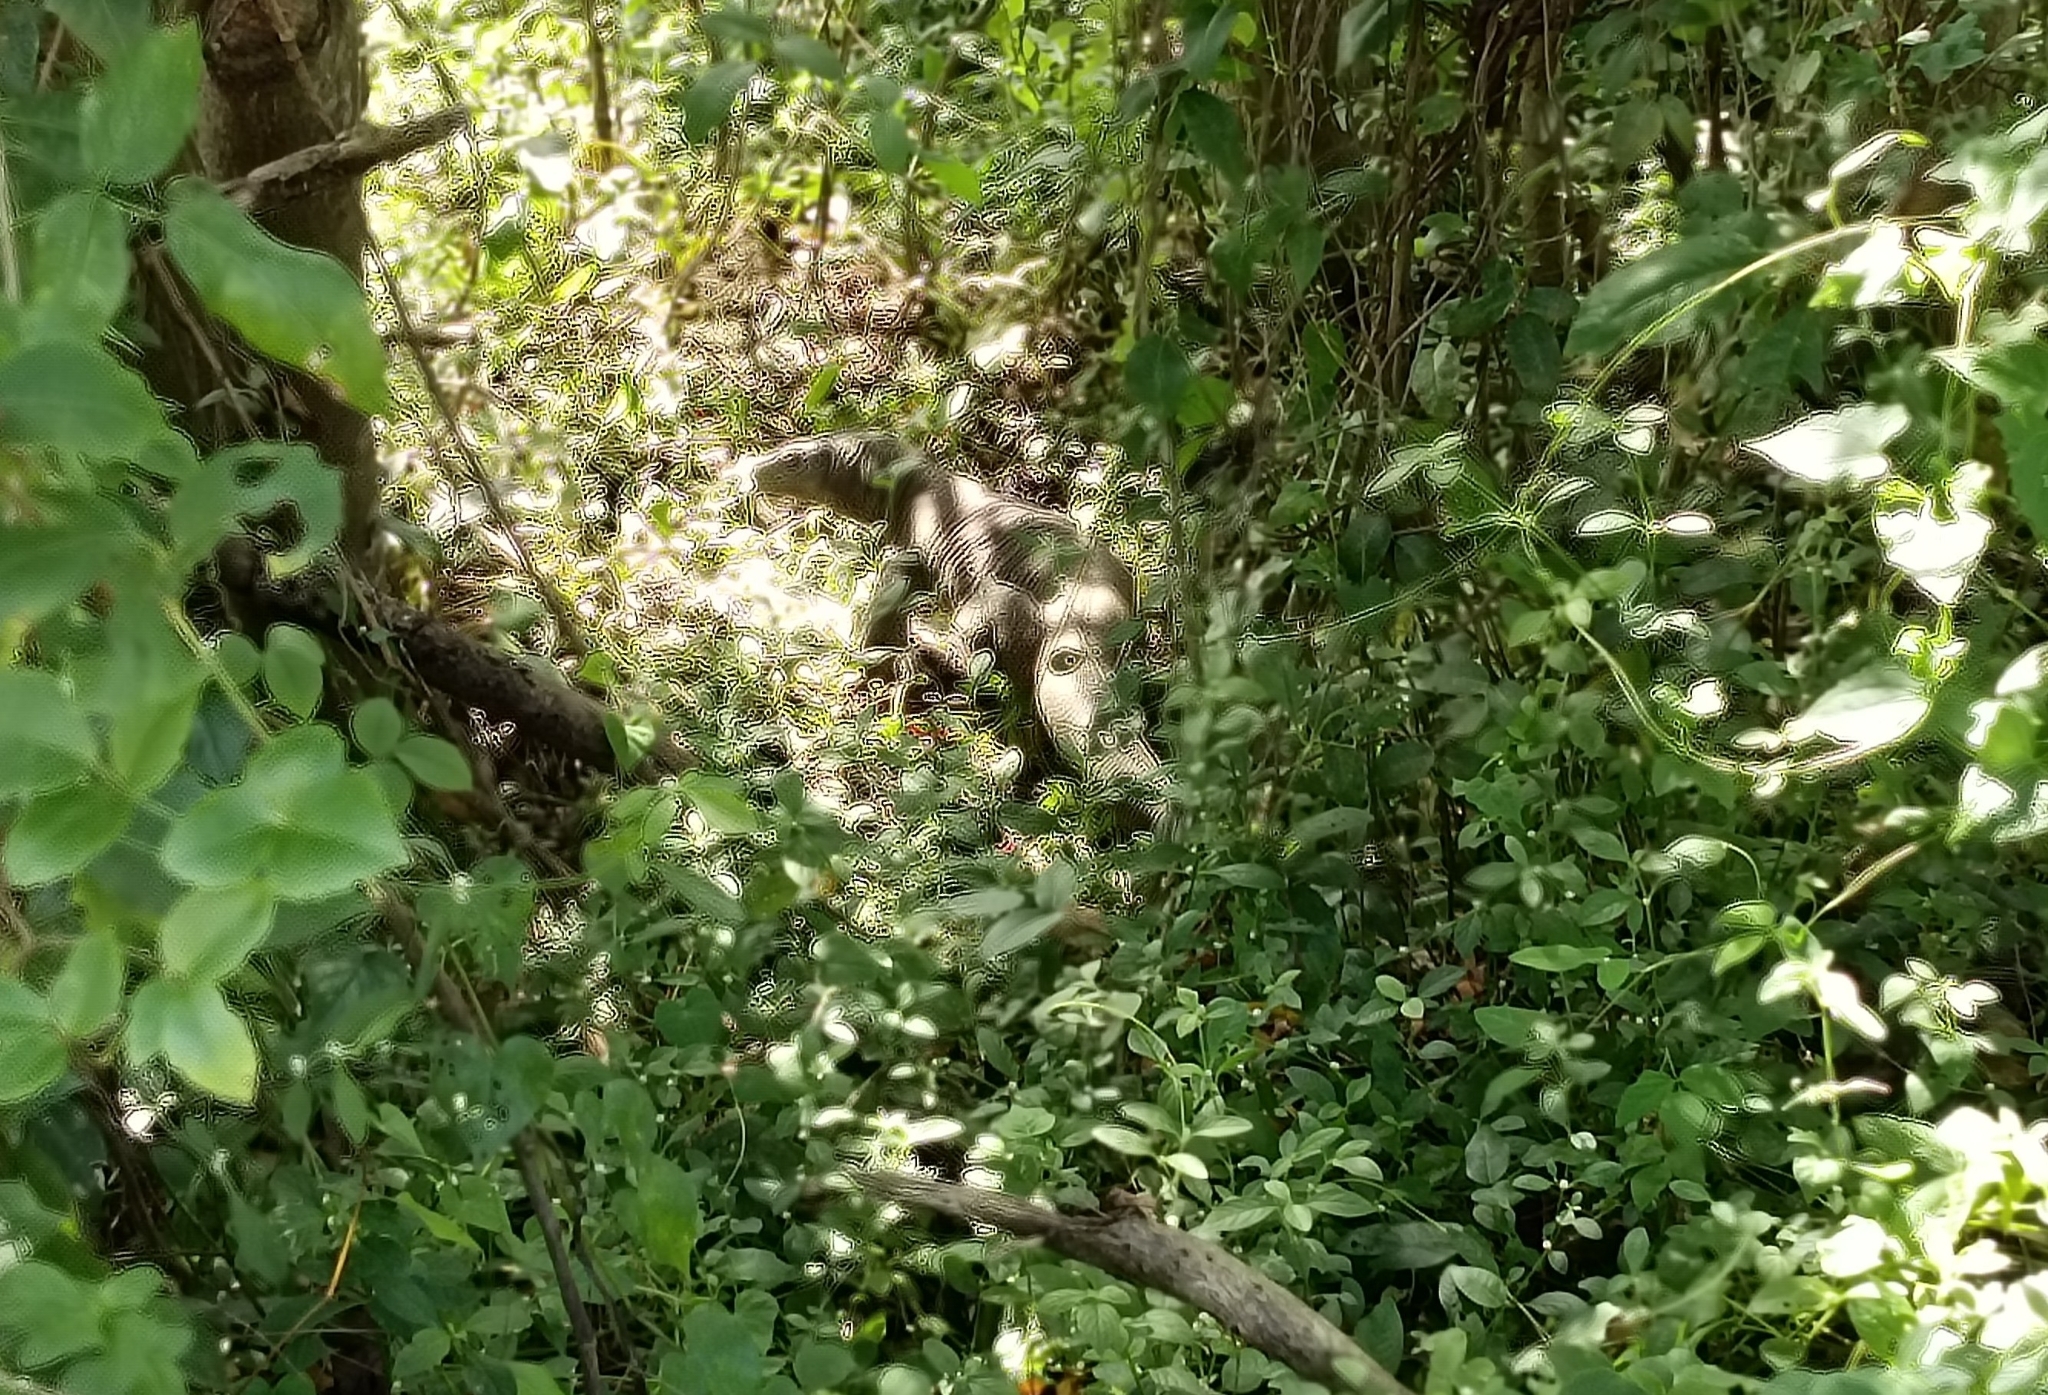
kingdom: Animalia
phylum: Chordata
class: Squamata
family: Varanidae
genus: Varanus
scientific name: Varanus bengalensis
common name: Bengal monitor
